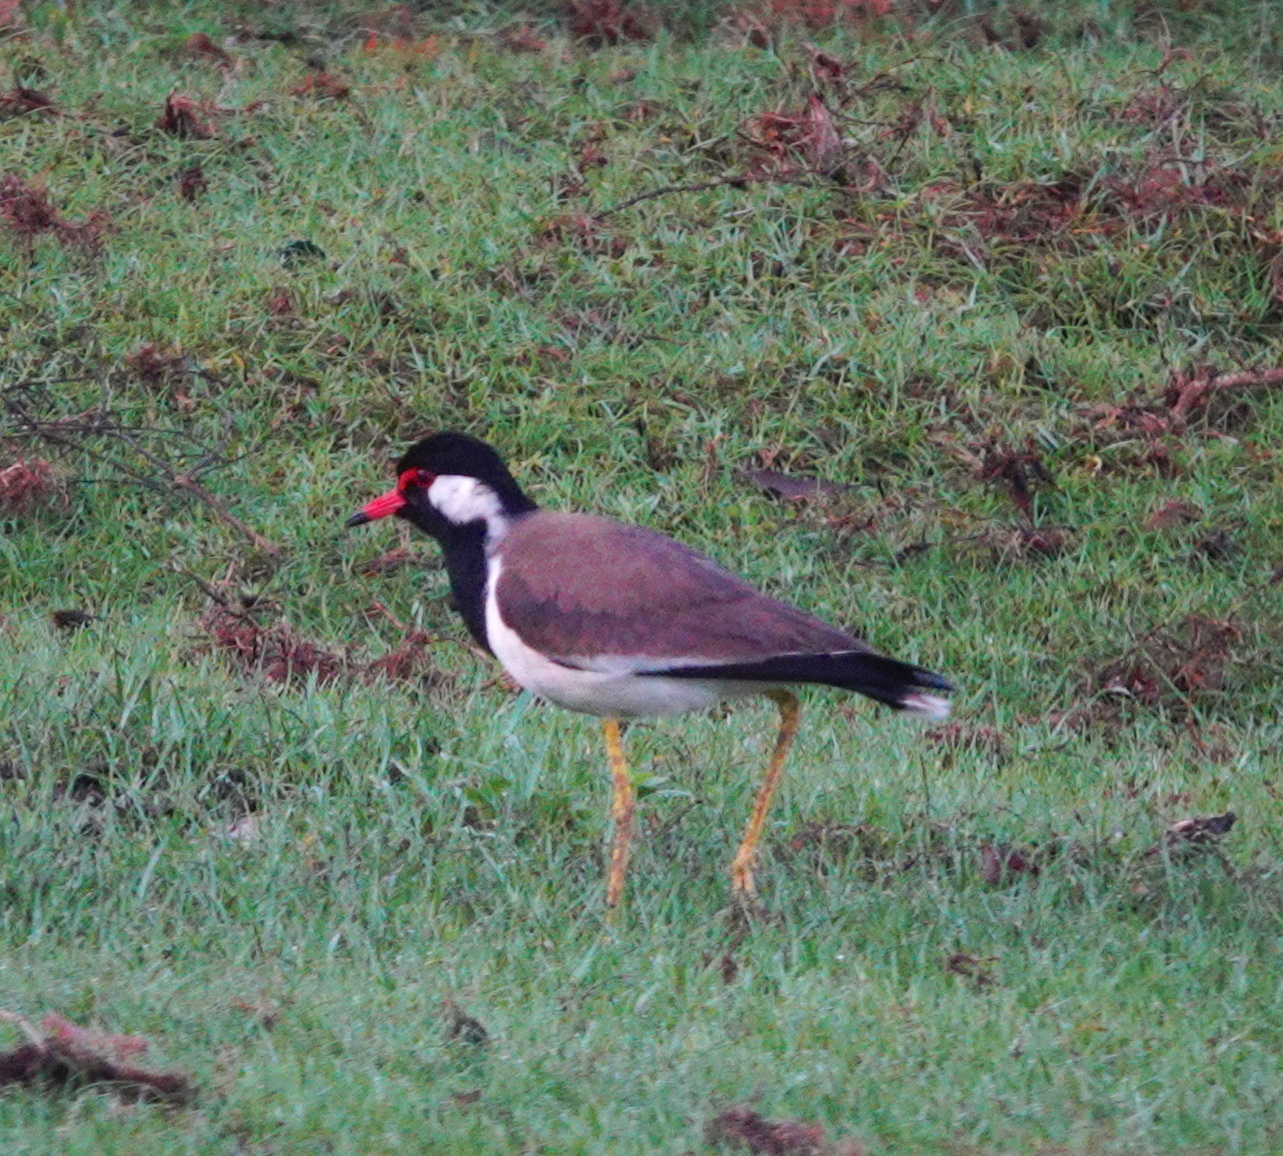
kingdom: Animalia
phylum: Chordata
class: Aves
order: Charadriiformes
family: Charadriidae
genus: Vanellus
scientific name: Vanellus indicus
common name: Red-wattled lapwing
